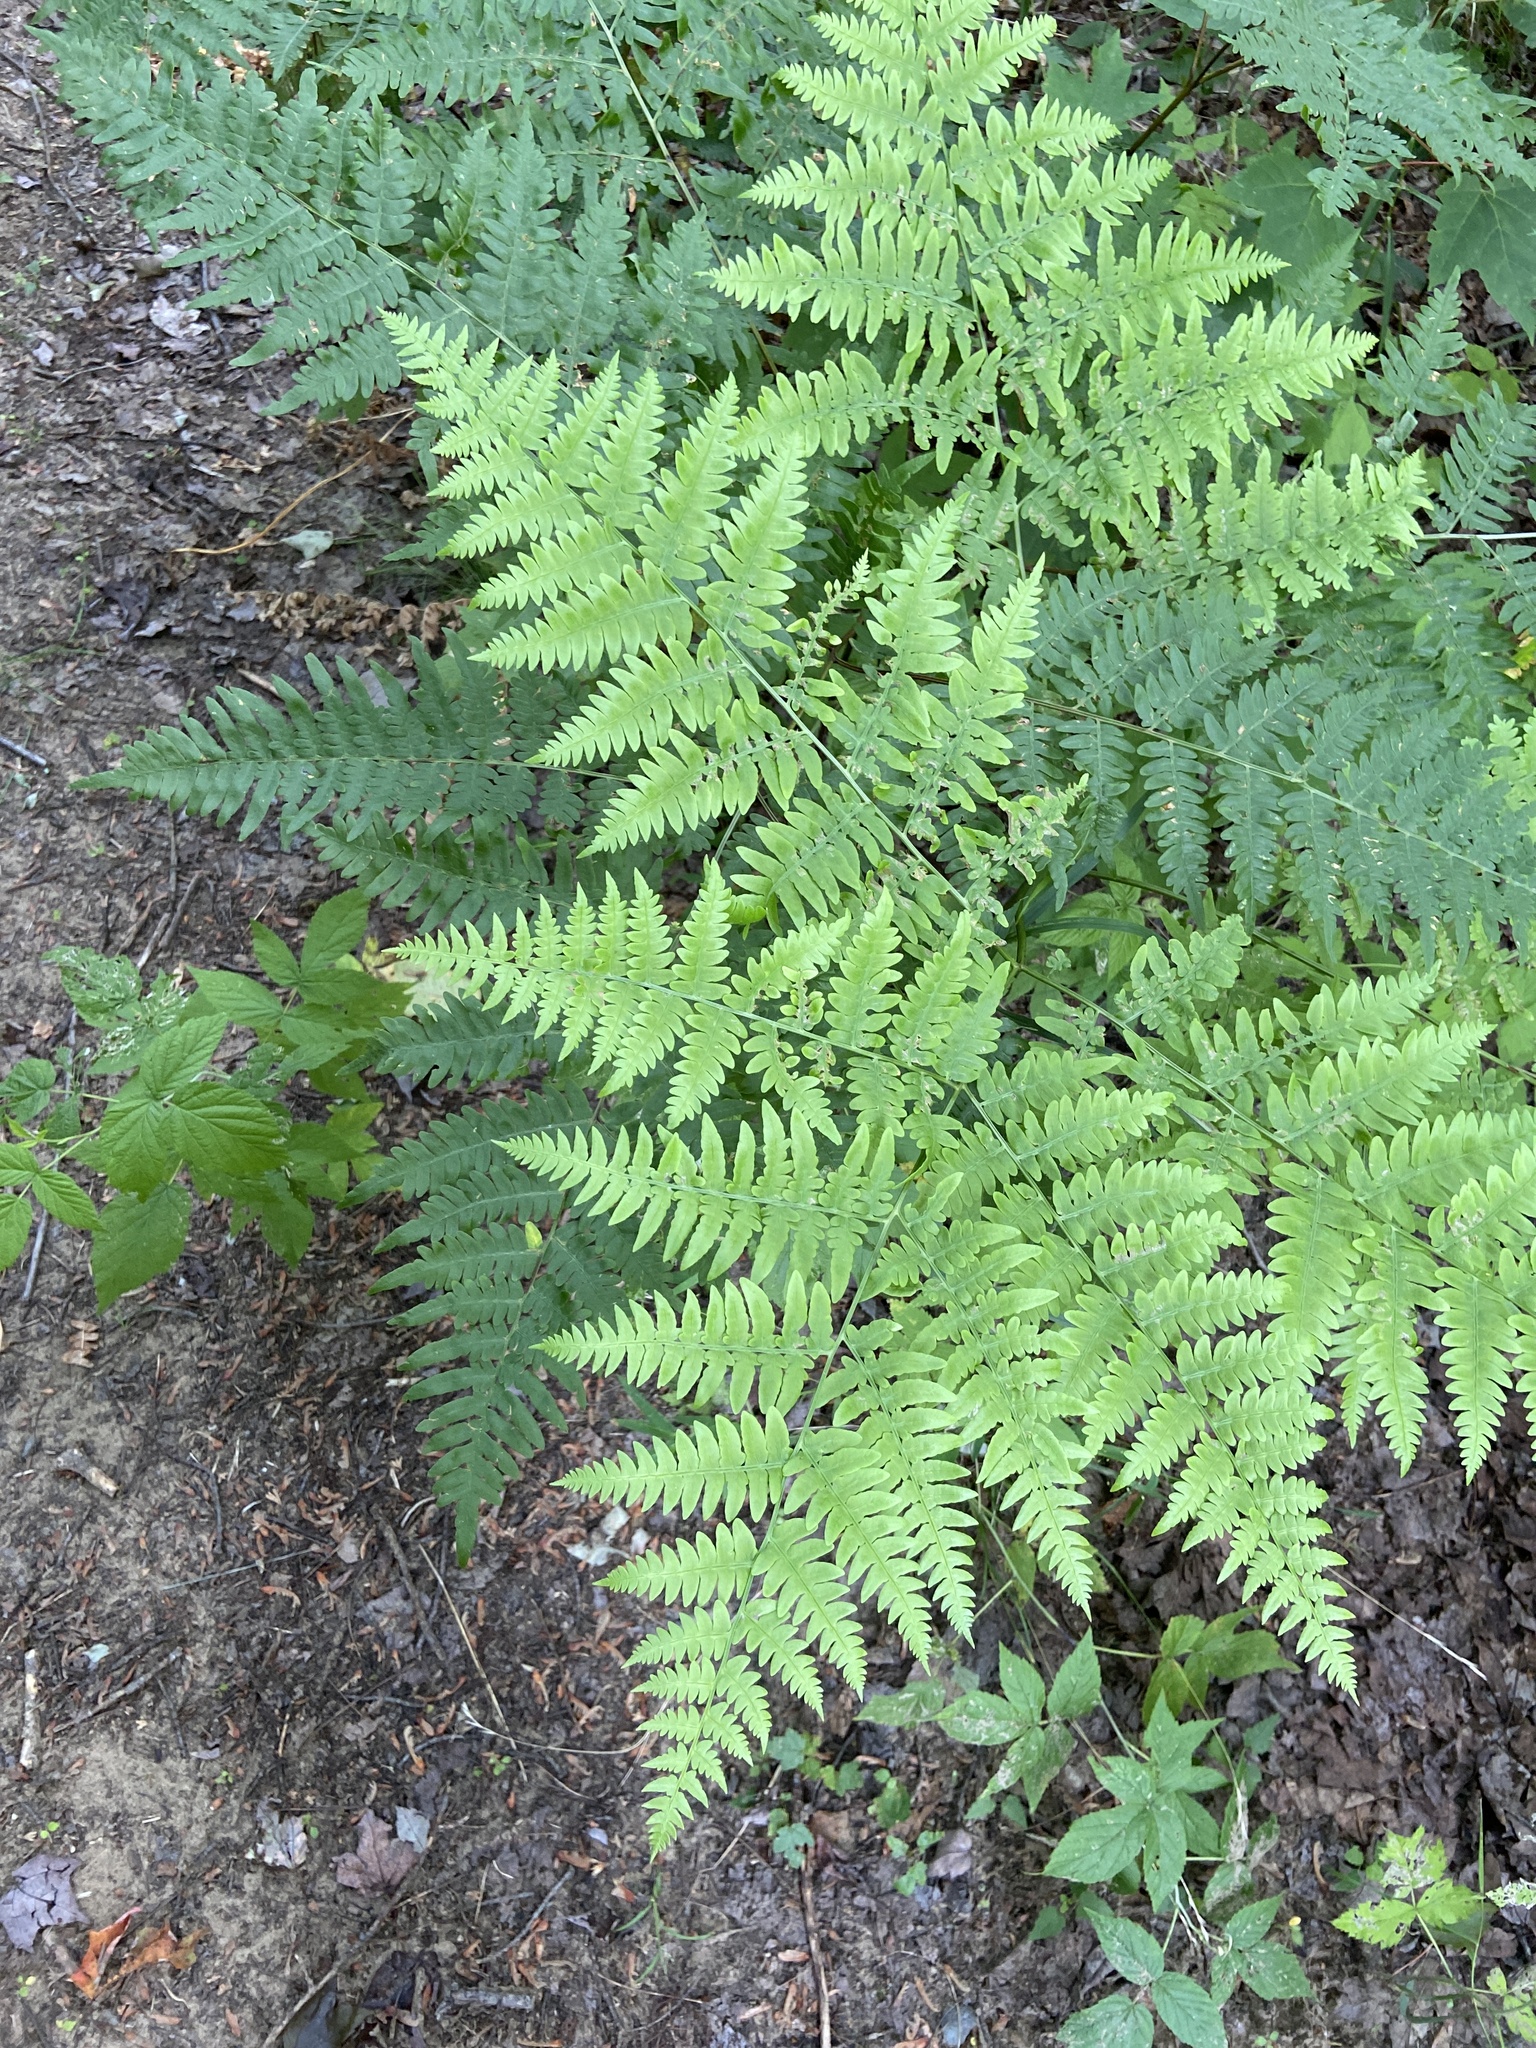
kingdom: Plantae
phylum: Tracheophyta
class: Polypodiopsida
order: Polypodiales
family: Dennstaedtiaceae
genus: Pteridium
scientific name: Pteridium aquilinum
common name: Bracken
